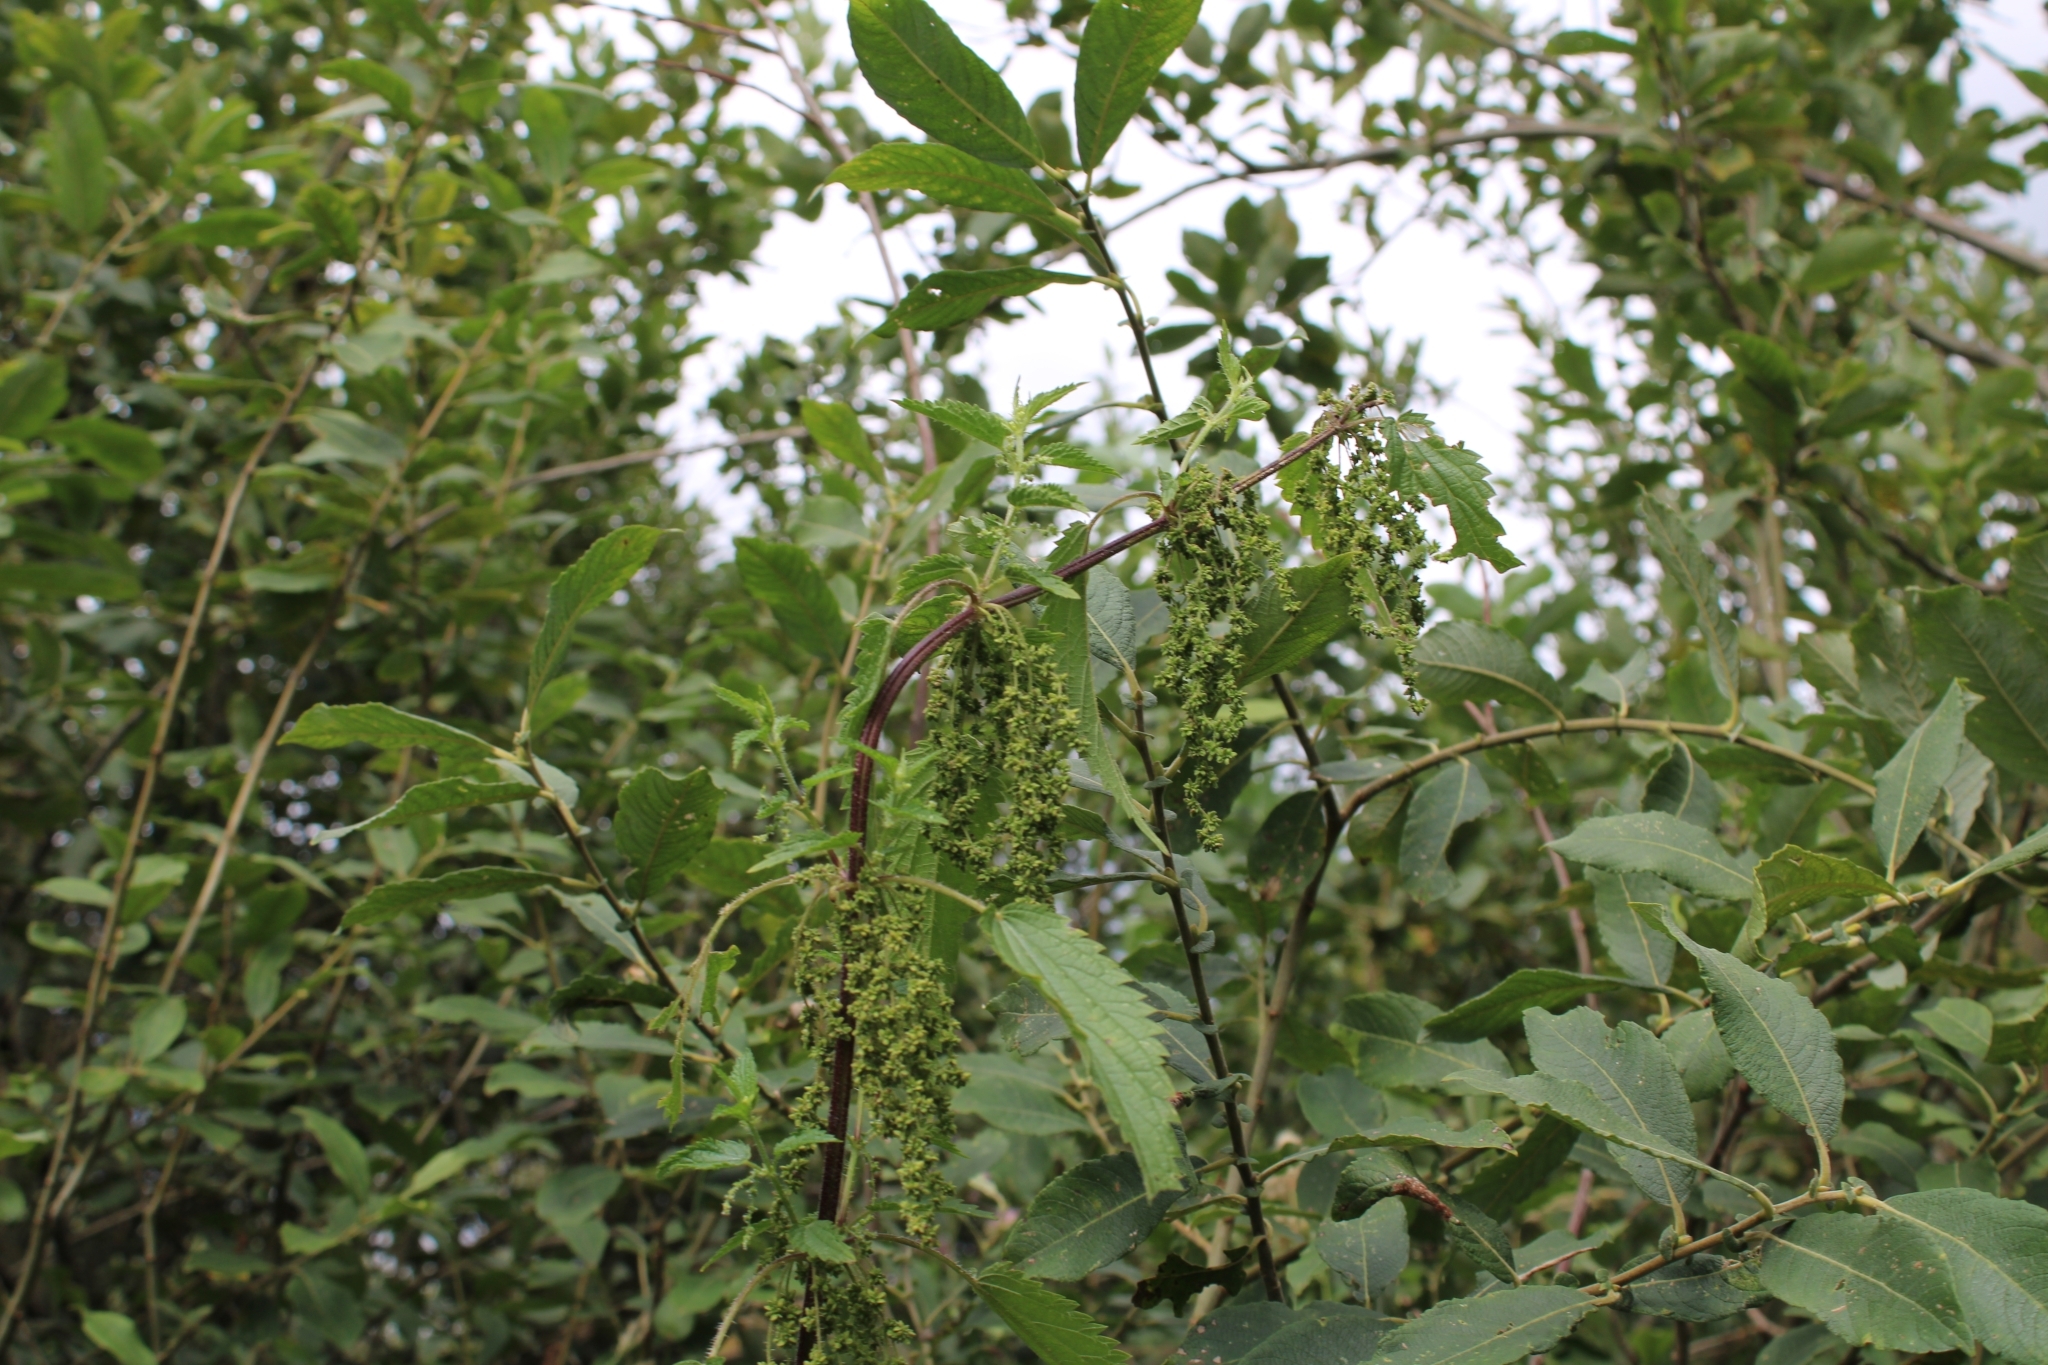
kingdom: Plantae
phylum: Tracheophyta
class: Magnoliopsida
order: Rosales
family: Urticaceae
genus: Urtica
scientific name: Urtica dioica
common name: Common nettle
